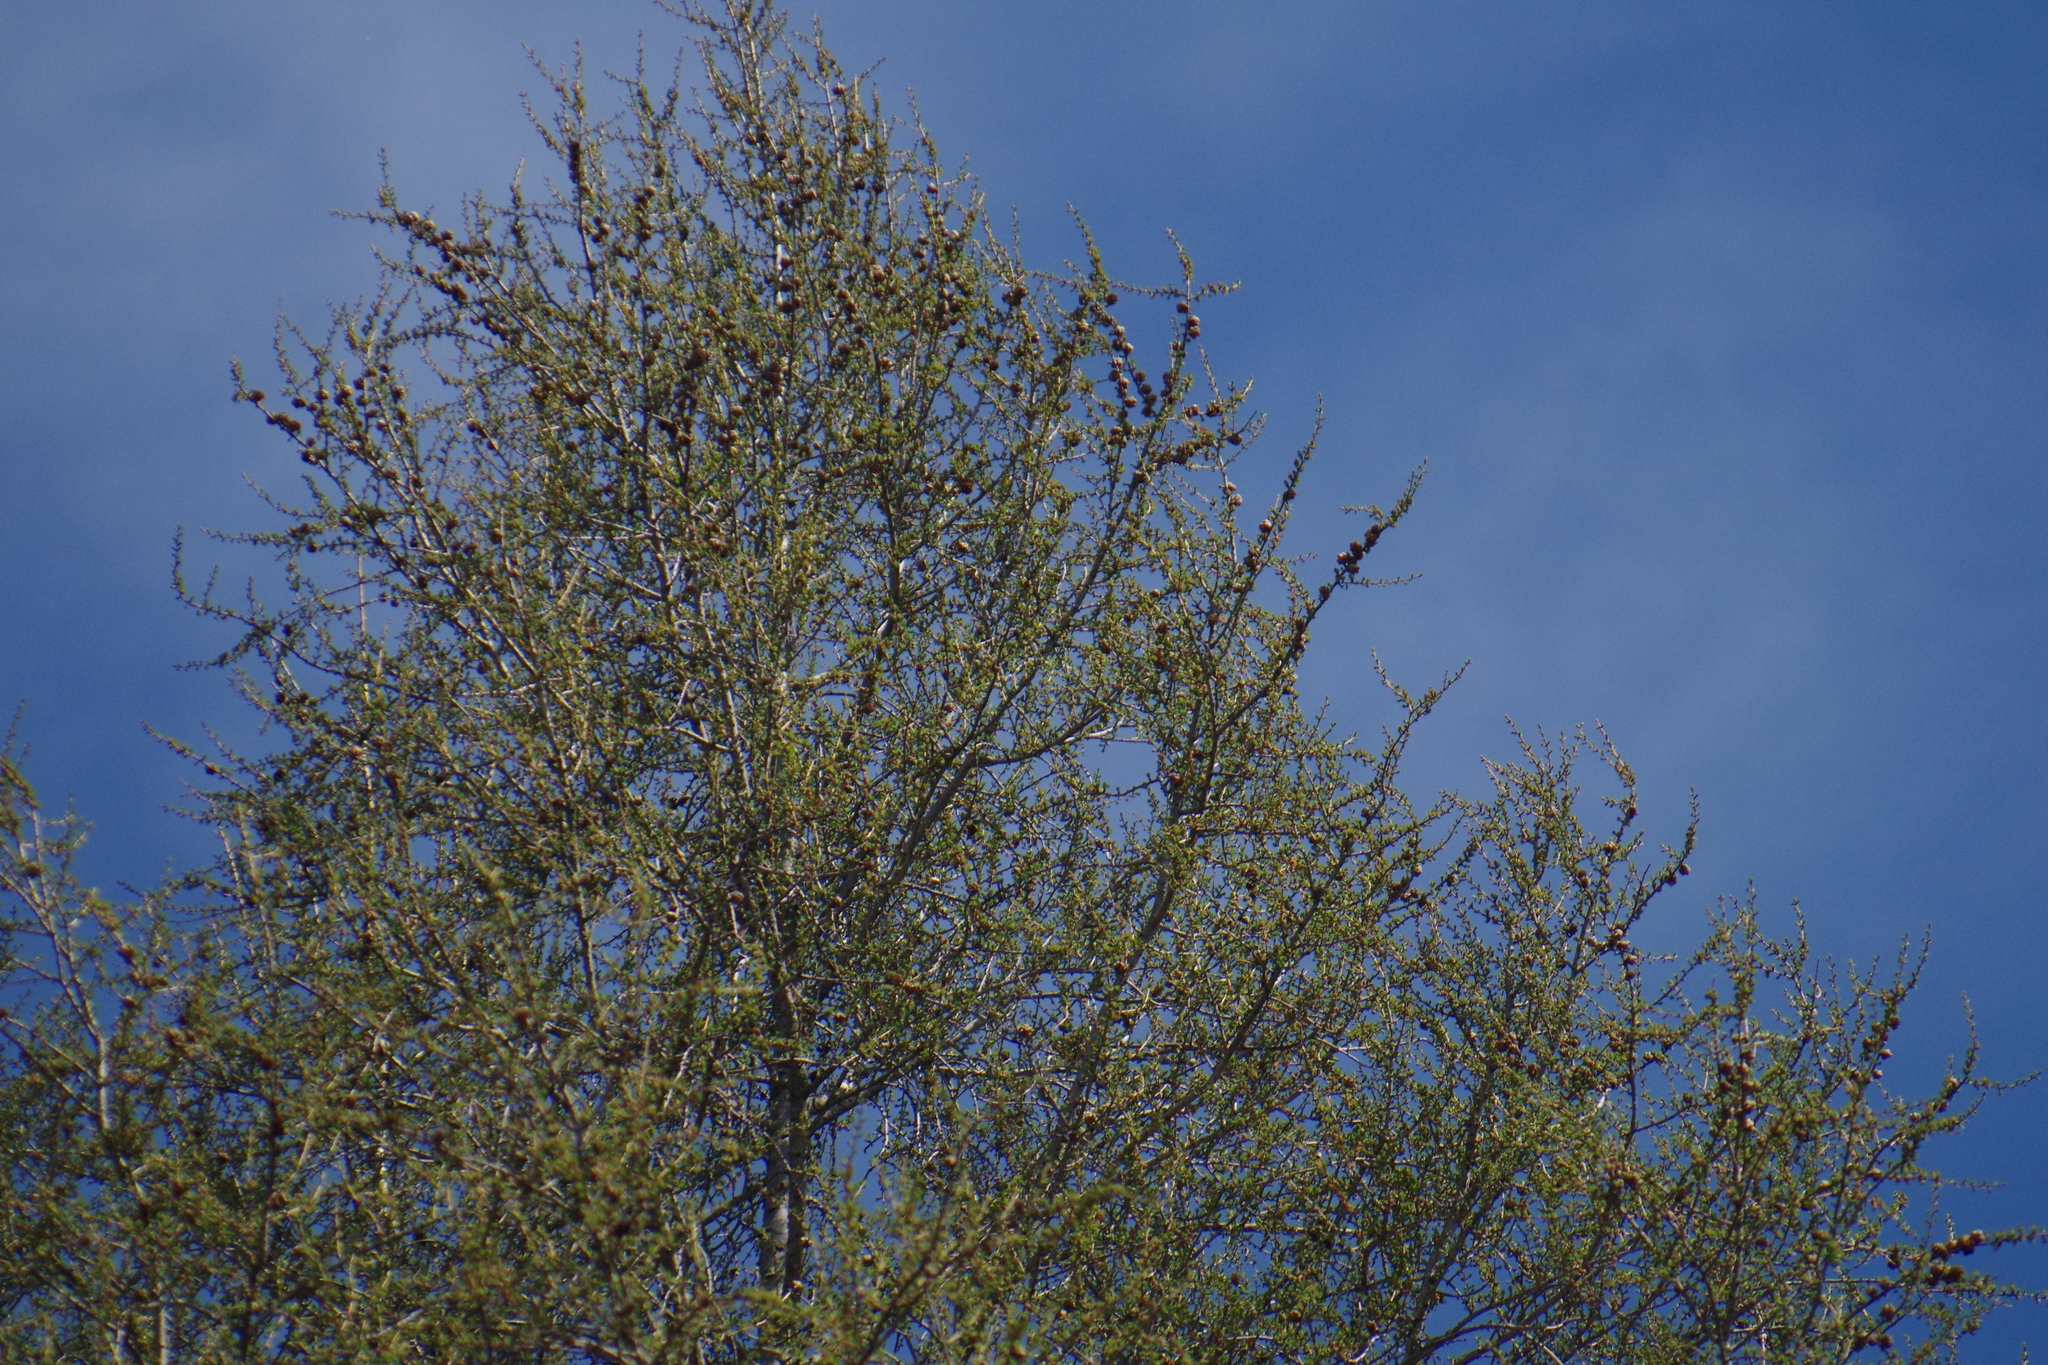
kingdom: Plantae
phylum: Tracheophyta
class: Pinopsida
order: Pinales
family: Pinaceae
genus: Larix
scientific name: Larix laricina
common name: American larch
